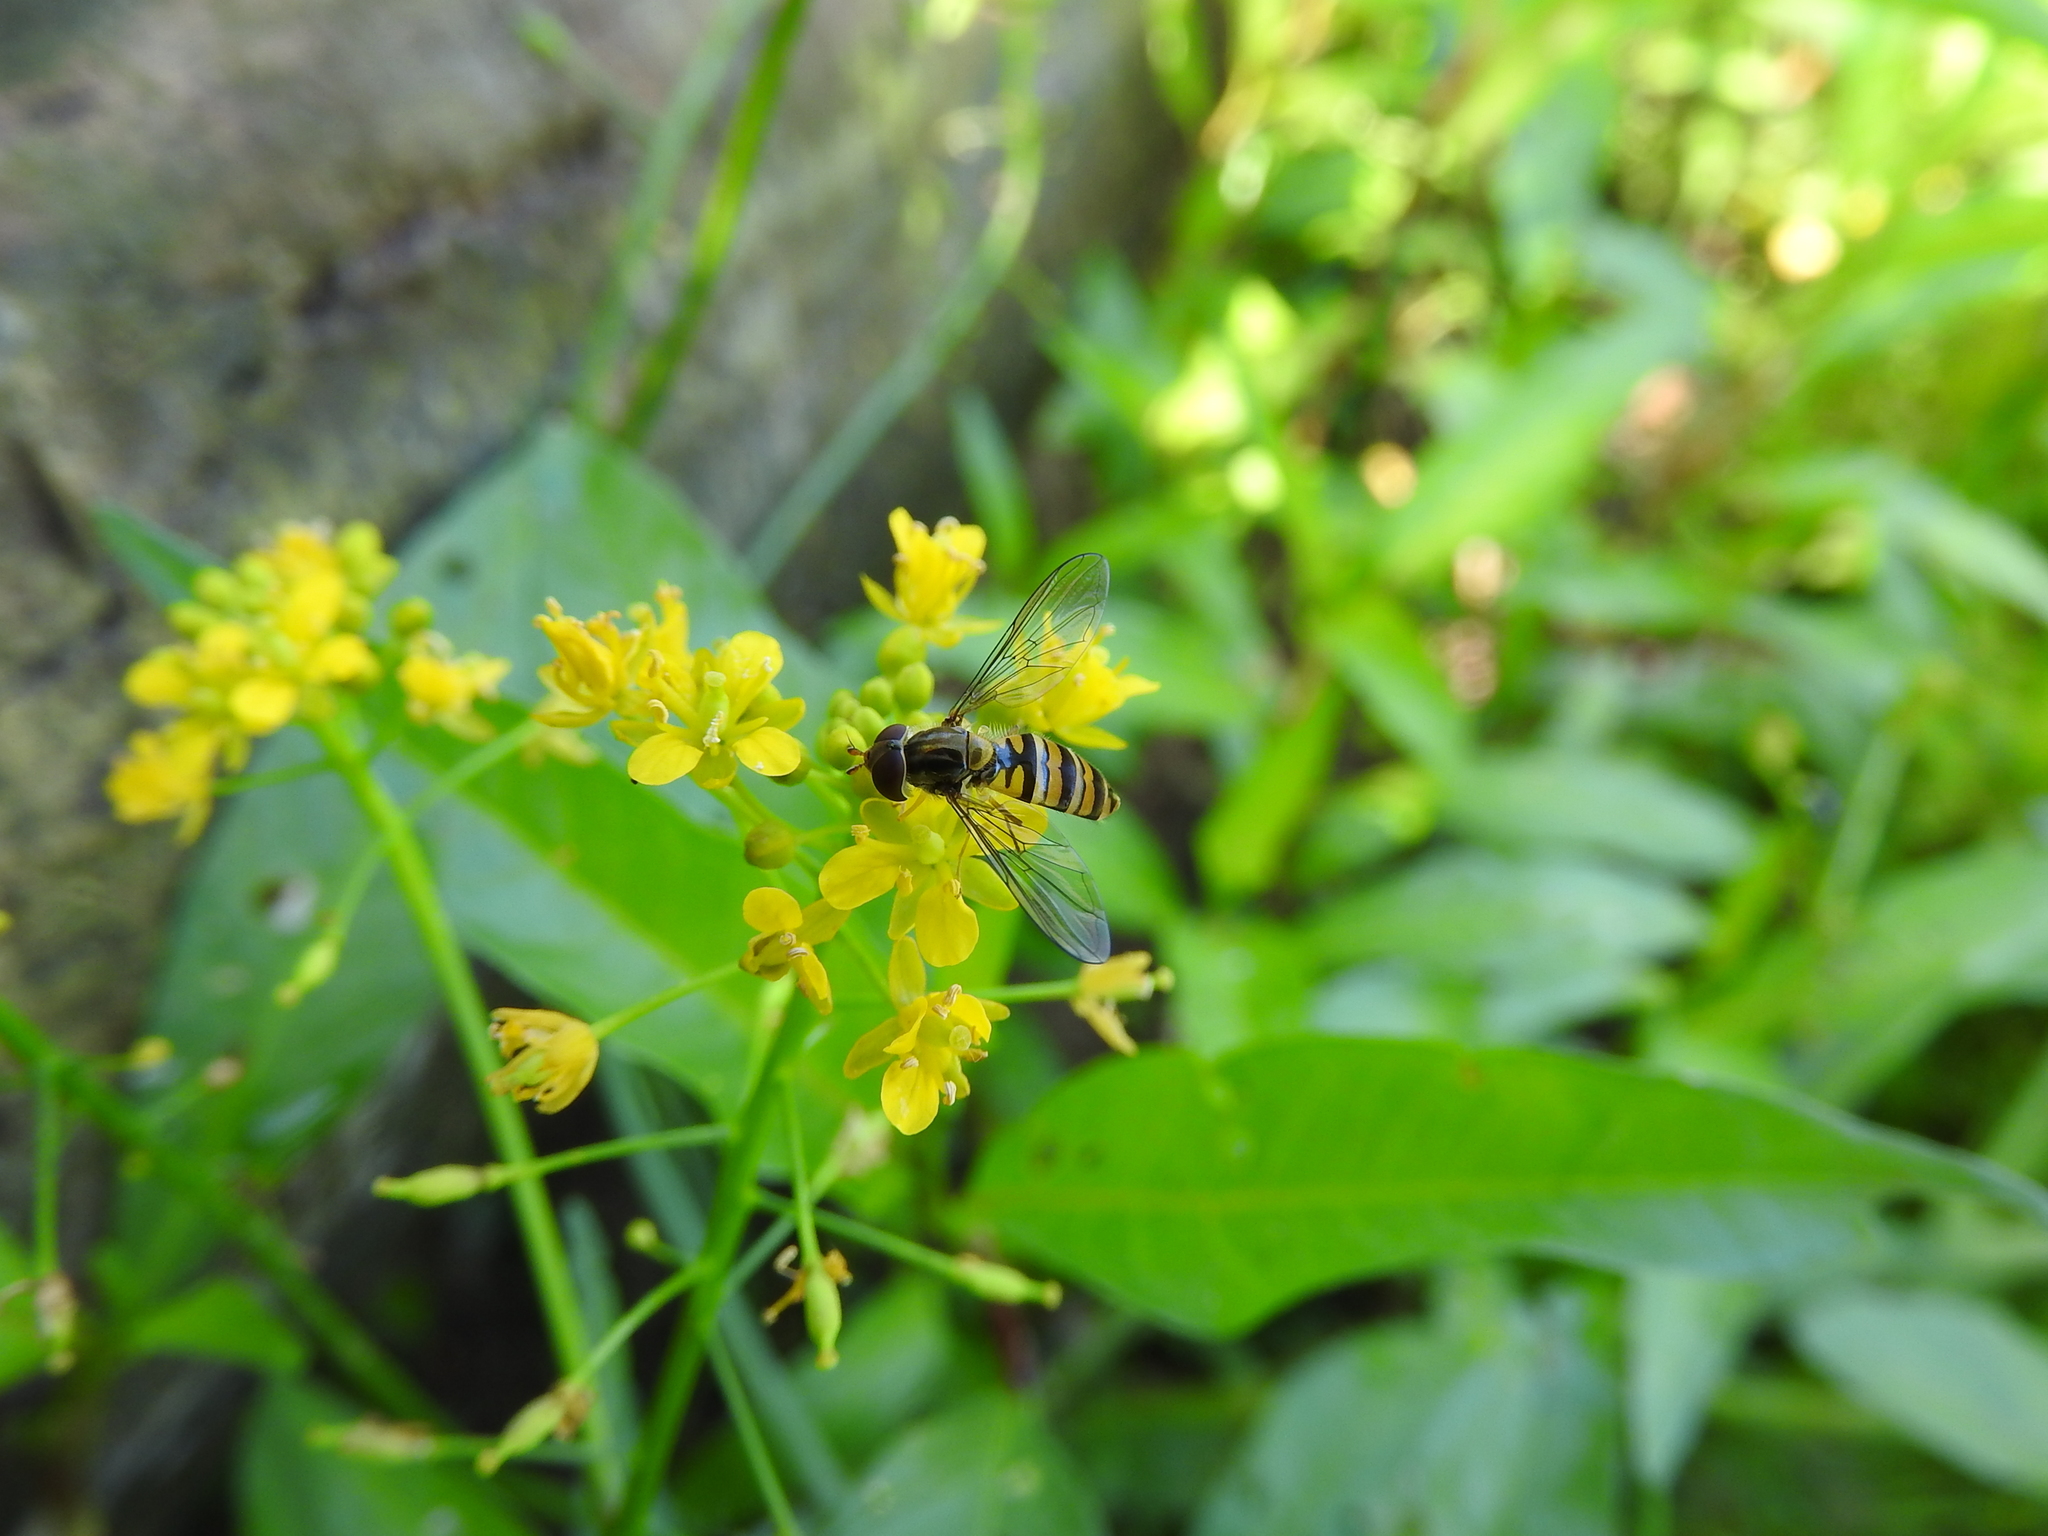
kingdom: Animalia
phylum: Arthropoda
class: Insecta
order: Diptera
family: Syrphidae
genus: Episyrphus
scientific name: Episyrphus balteatus
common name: Marmalade hoverfly
